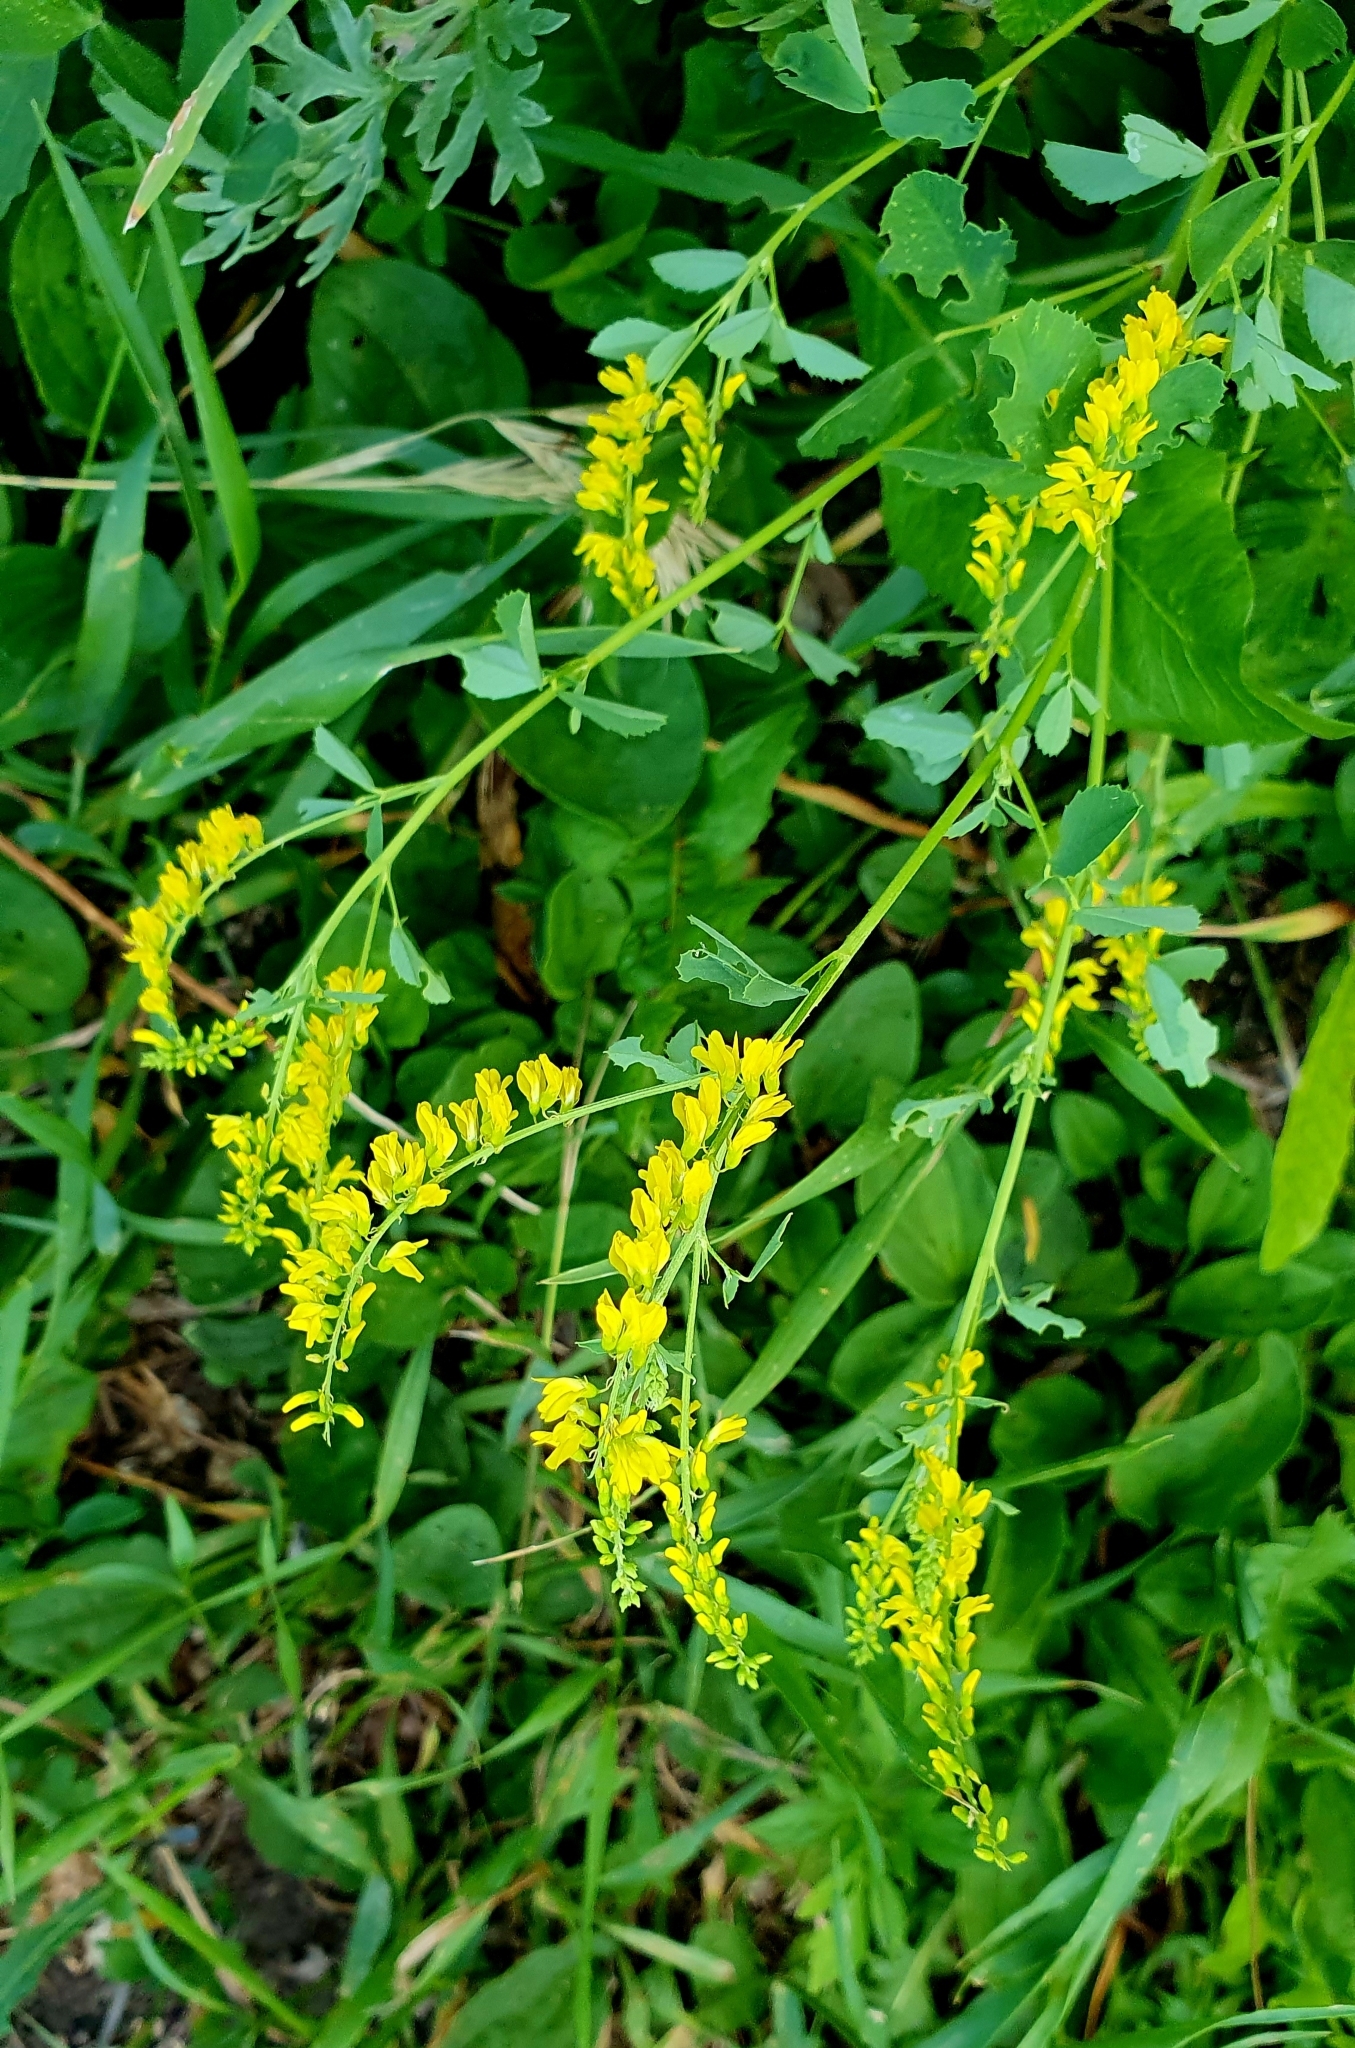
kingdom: Plantae
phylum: Tracheophyta
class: Magnoliopsida
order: Fabales
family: Fabaceae
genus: Melilotus
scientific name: Melilotus officinalis
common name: Sweetclover
